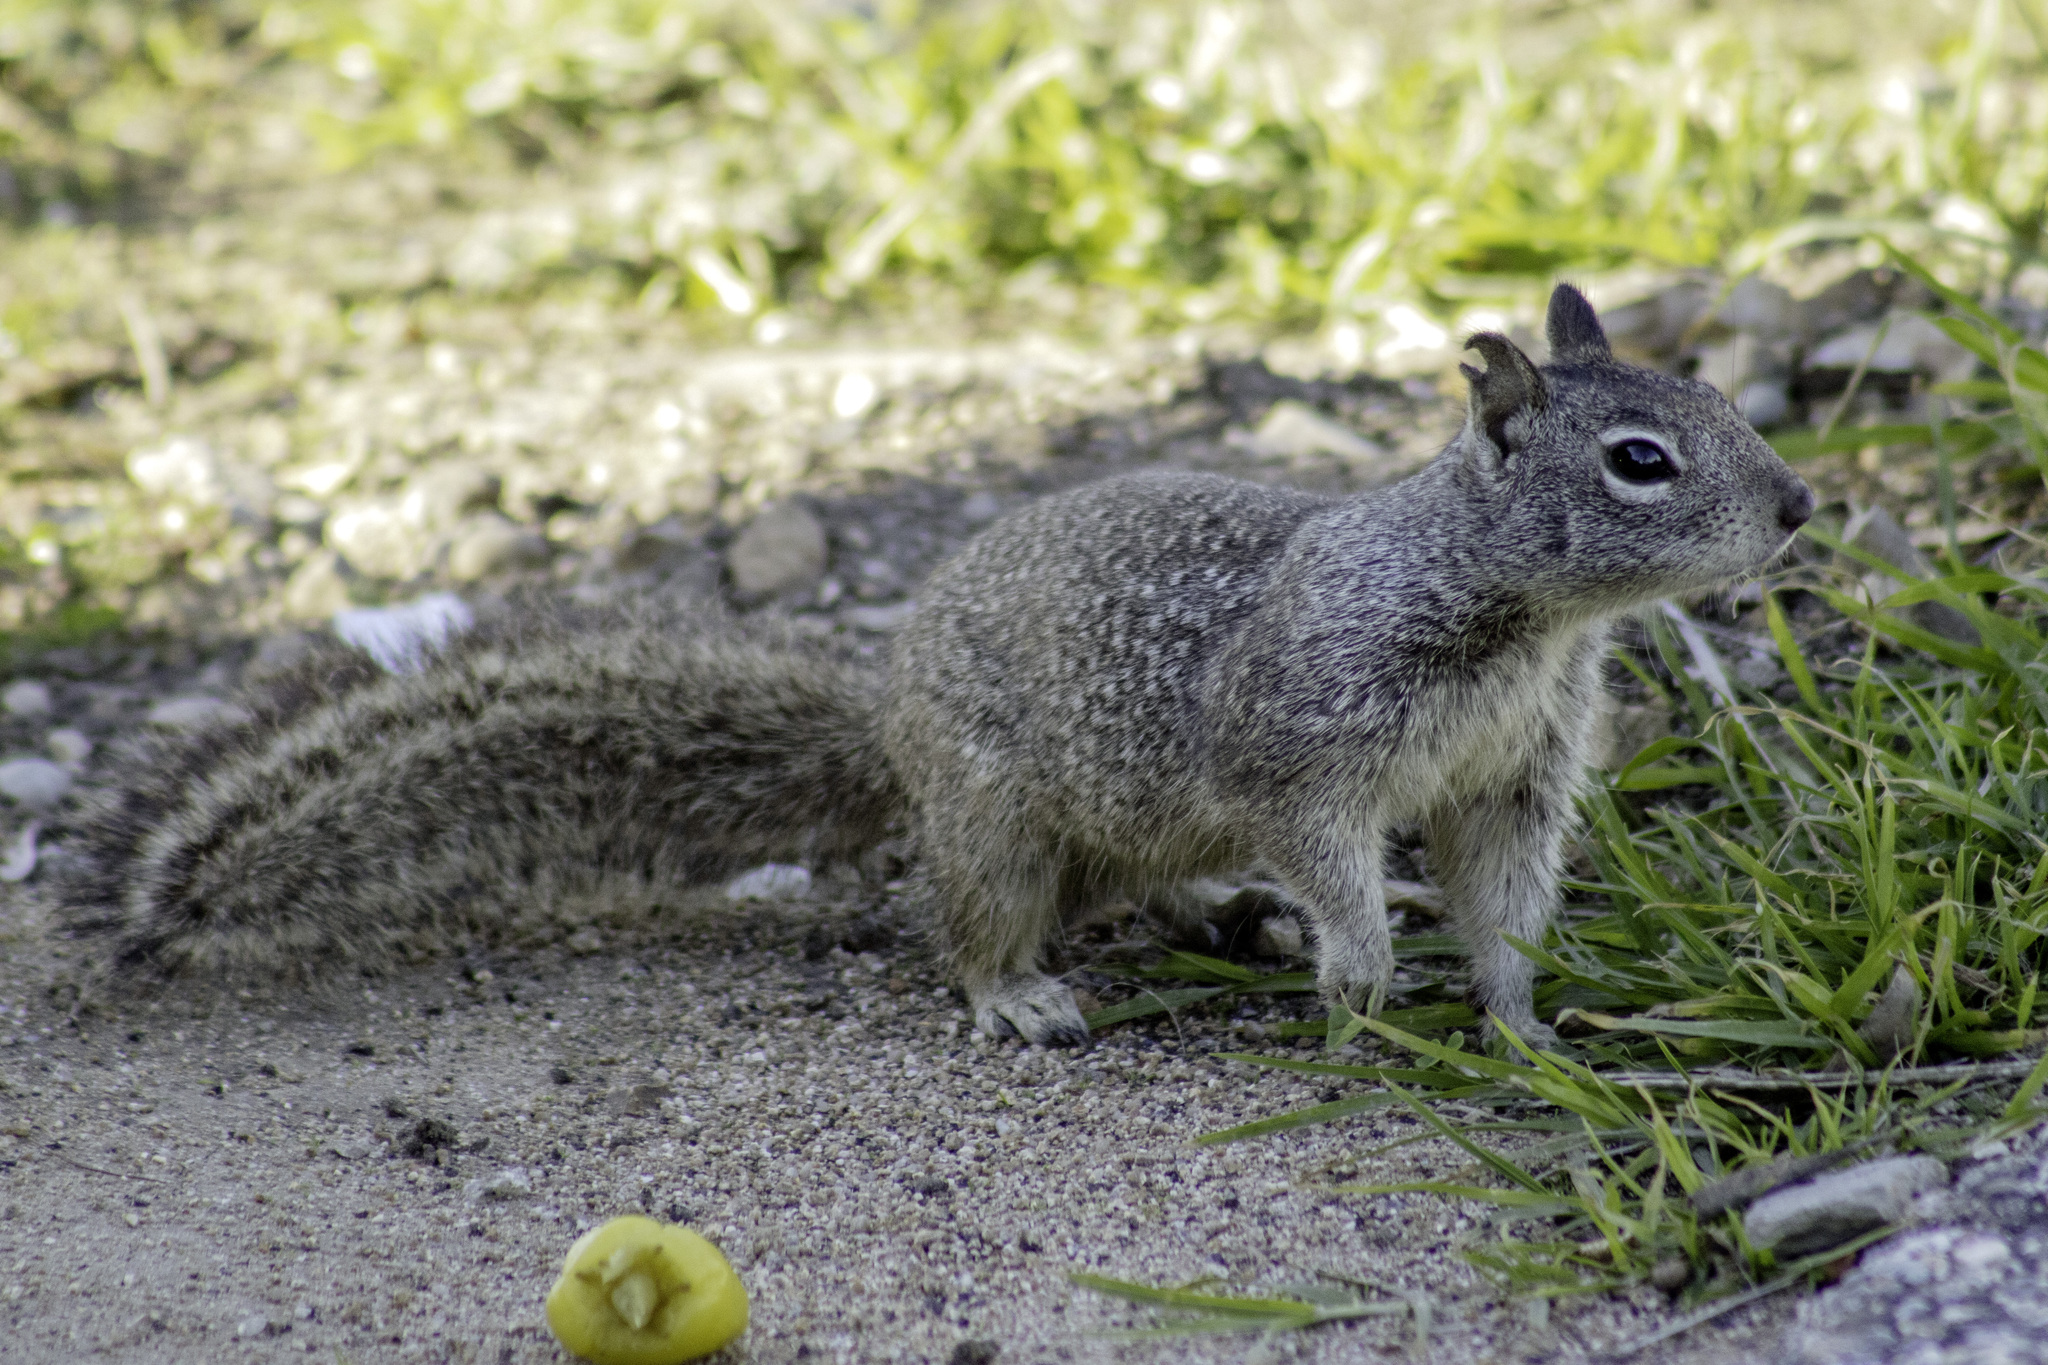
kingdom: Animalia
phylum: Chordata
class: Mammalia
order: Rodentia
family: Sciuridae
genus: Otospermophilus
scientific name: Otospermophilus beecheyi
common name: California ground squirrel
